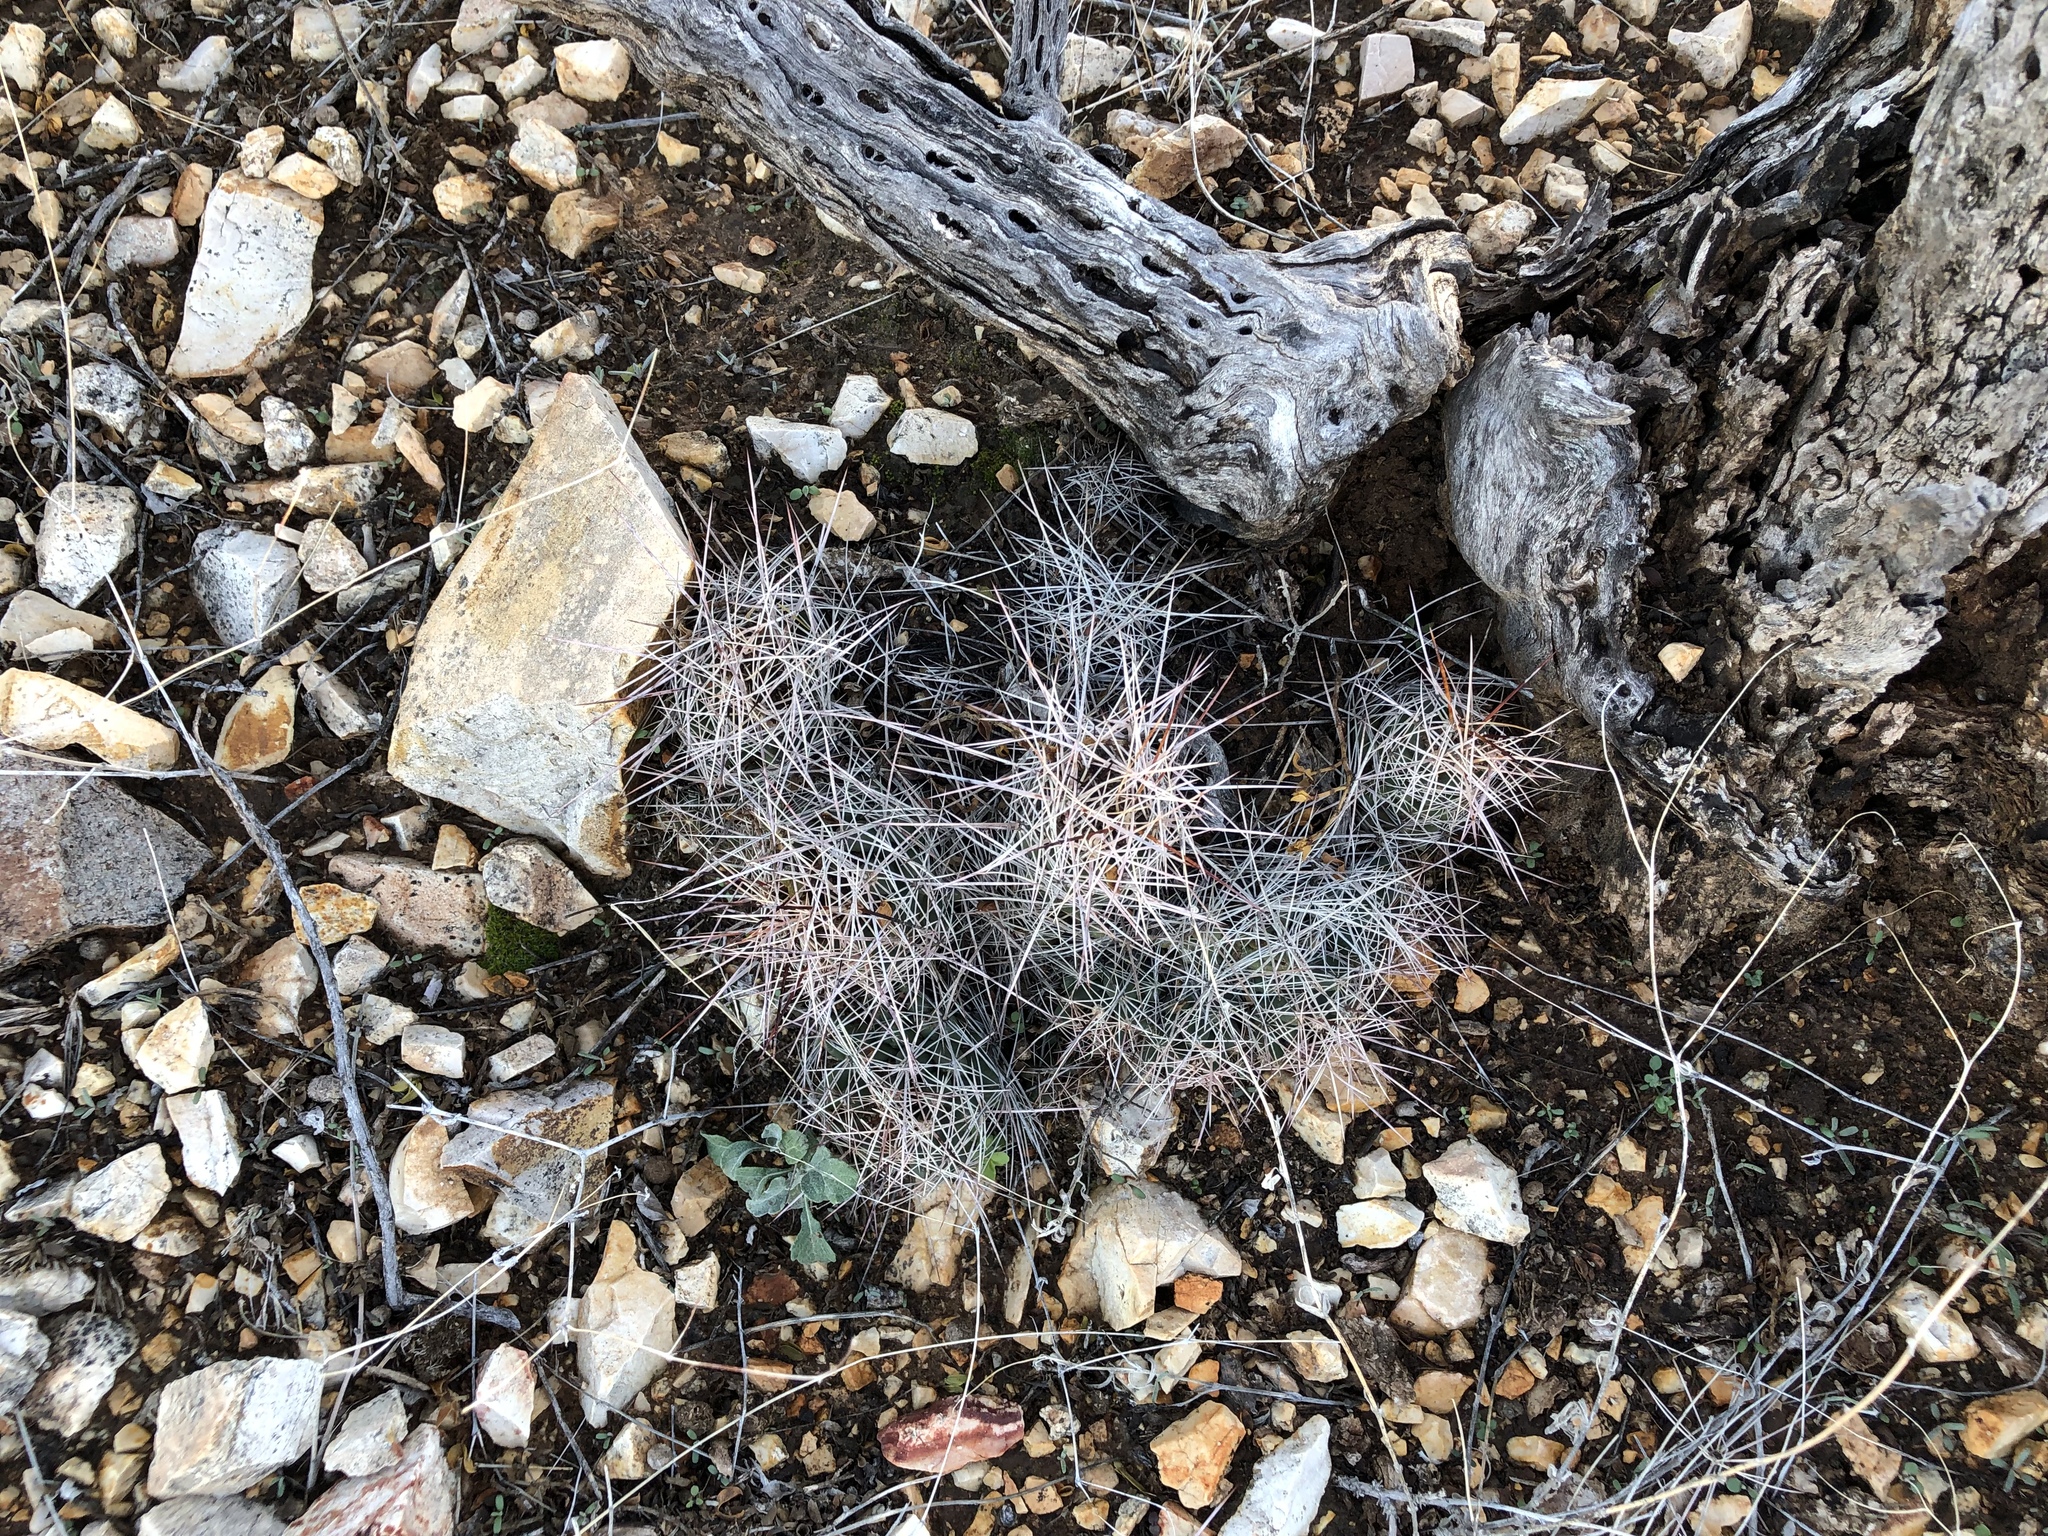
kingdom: Plantae
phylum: Tracheophyta
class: Magnoliopsida
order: Caryophyllales
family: Cactaceae
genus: Echinocereus
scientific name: Echinocereus coccineus
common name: Scarlet hedgehog cactus
